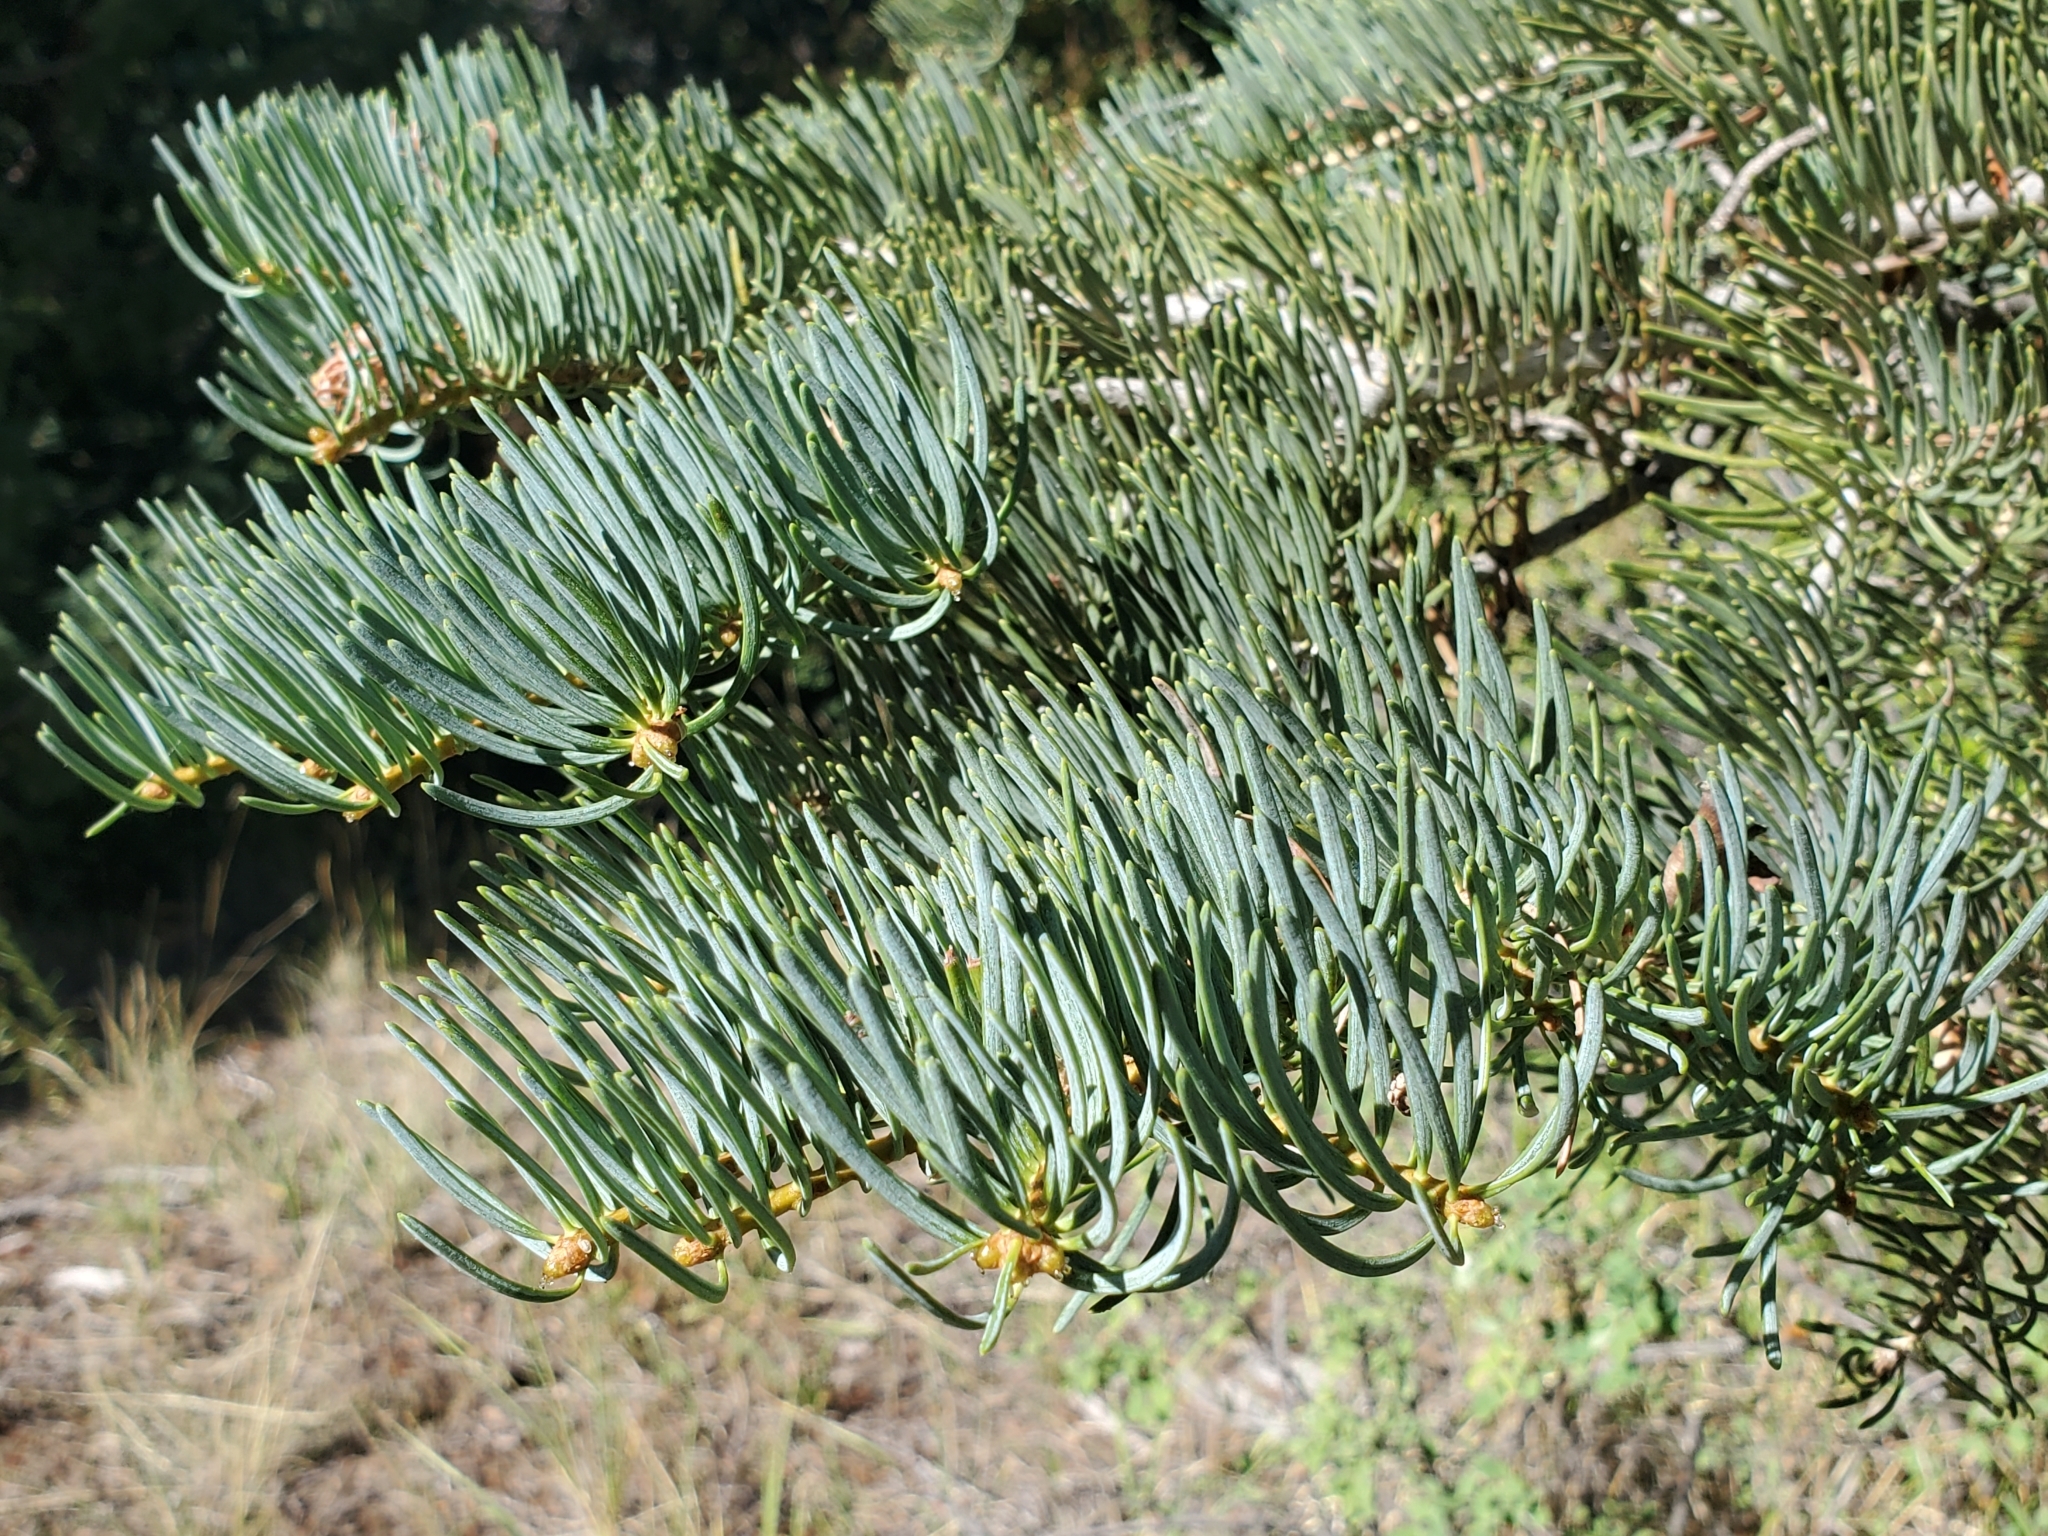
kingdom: Plantae
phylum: Tracheophyta
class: Pinopsida
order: Pinales
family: Pinaceae
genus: Abies
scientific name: Abies concolor
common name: Colorado fir
